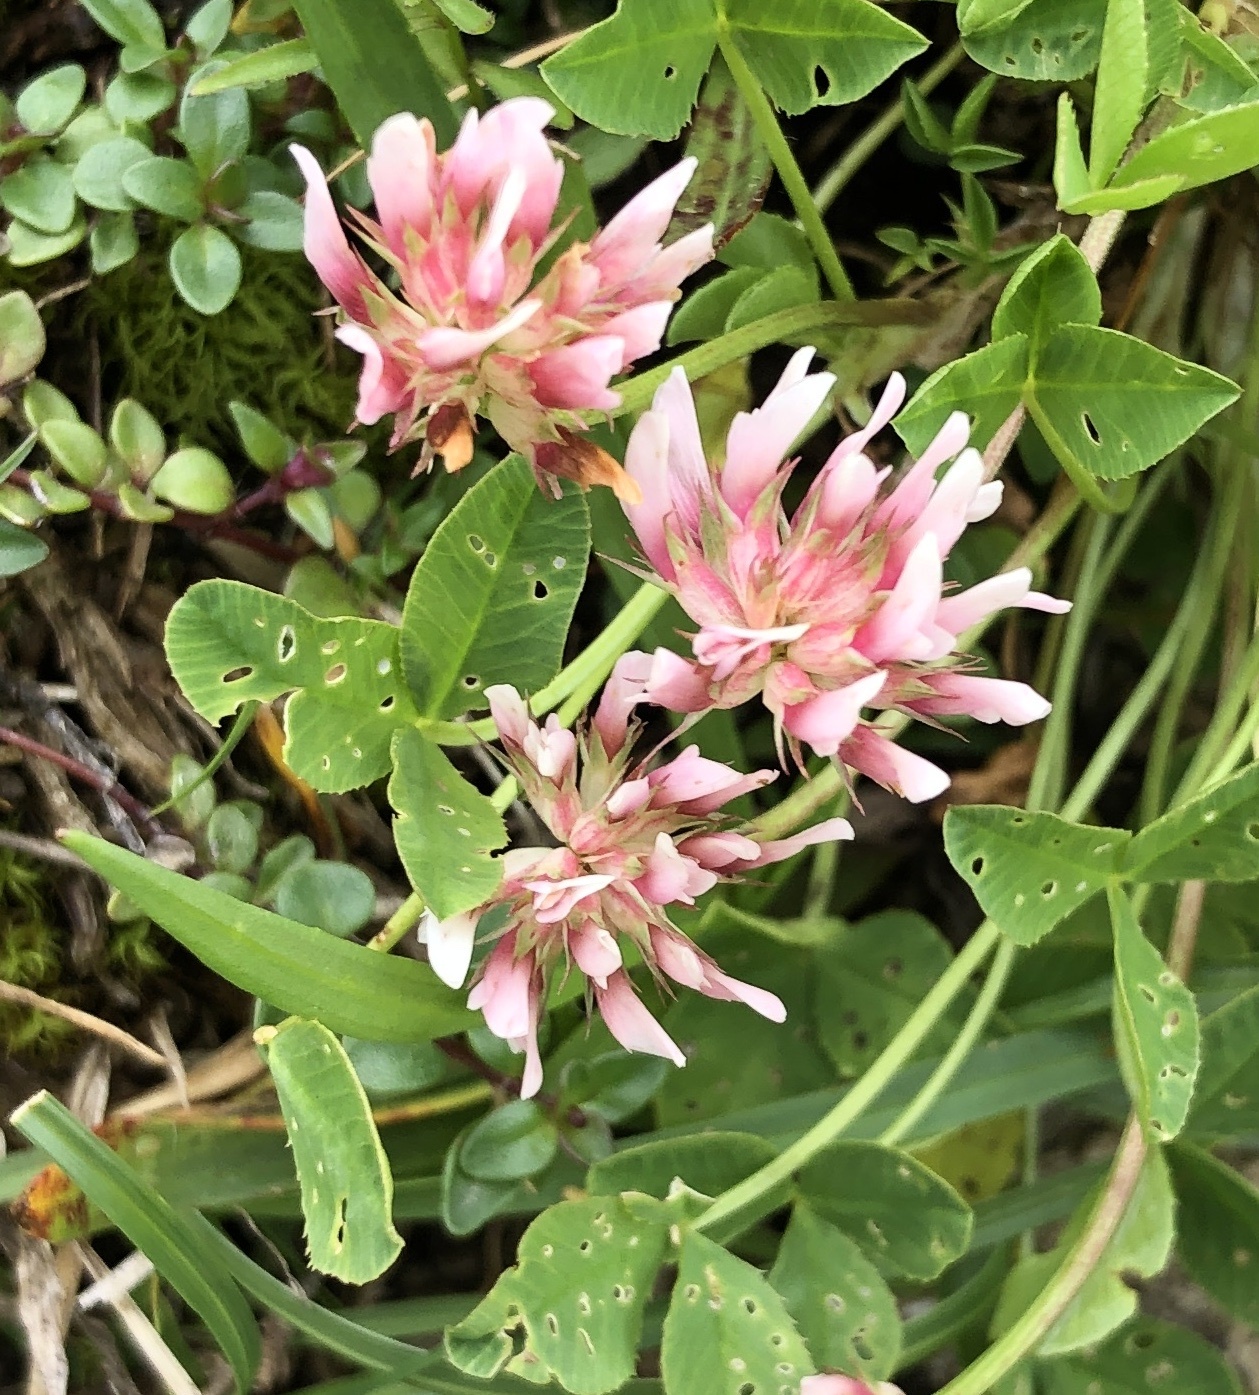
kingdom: Plantae
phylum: Tracheophyta
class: Magnoliopsida
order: Fabales
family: Fabaceae
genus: Trifolium
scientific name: Trifolium hybridum
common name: Alsike clover
